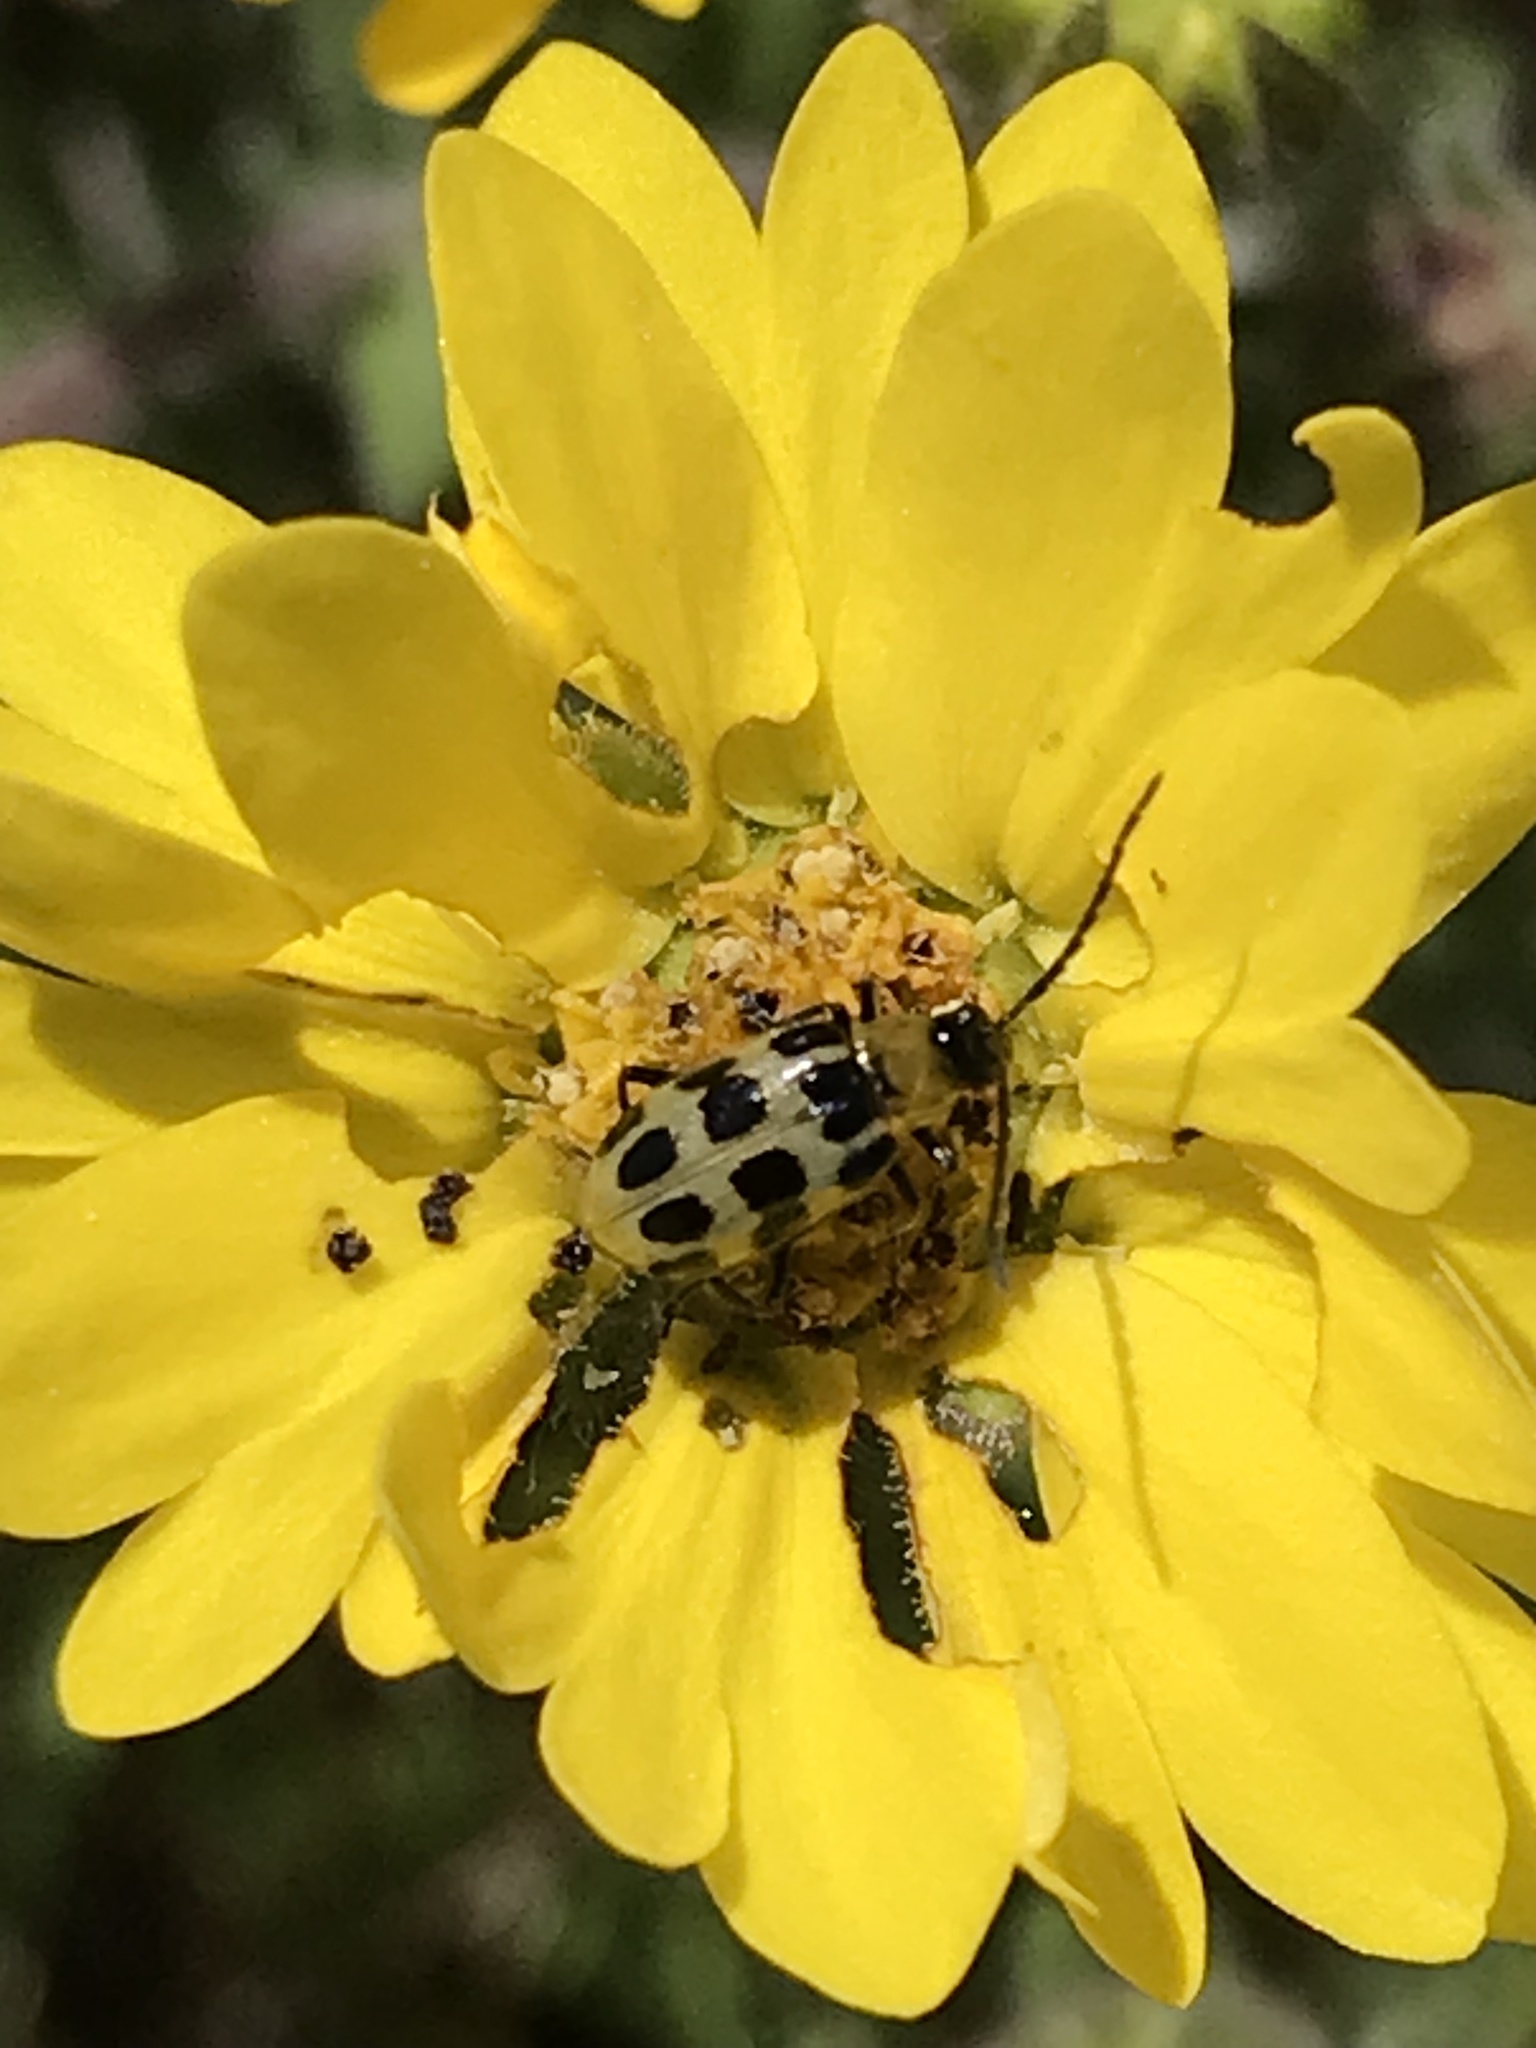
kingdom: Animalia
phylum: Arthropoda
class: Insecta
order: Coleoptera
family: Chrysomelidae
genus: Diabrotica
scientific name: Diabrotica undecimpunctata
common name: Spotted cucumber beetle
